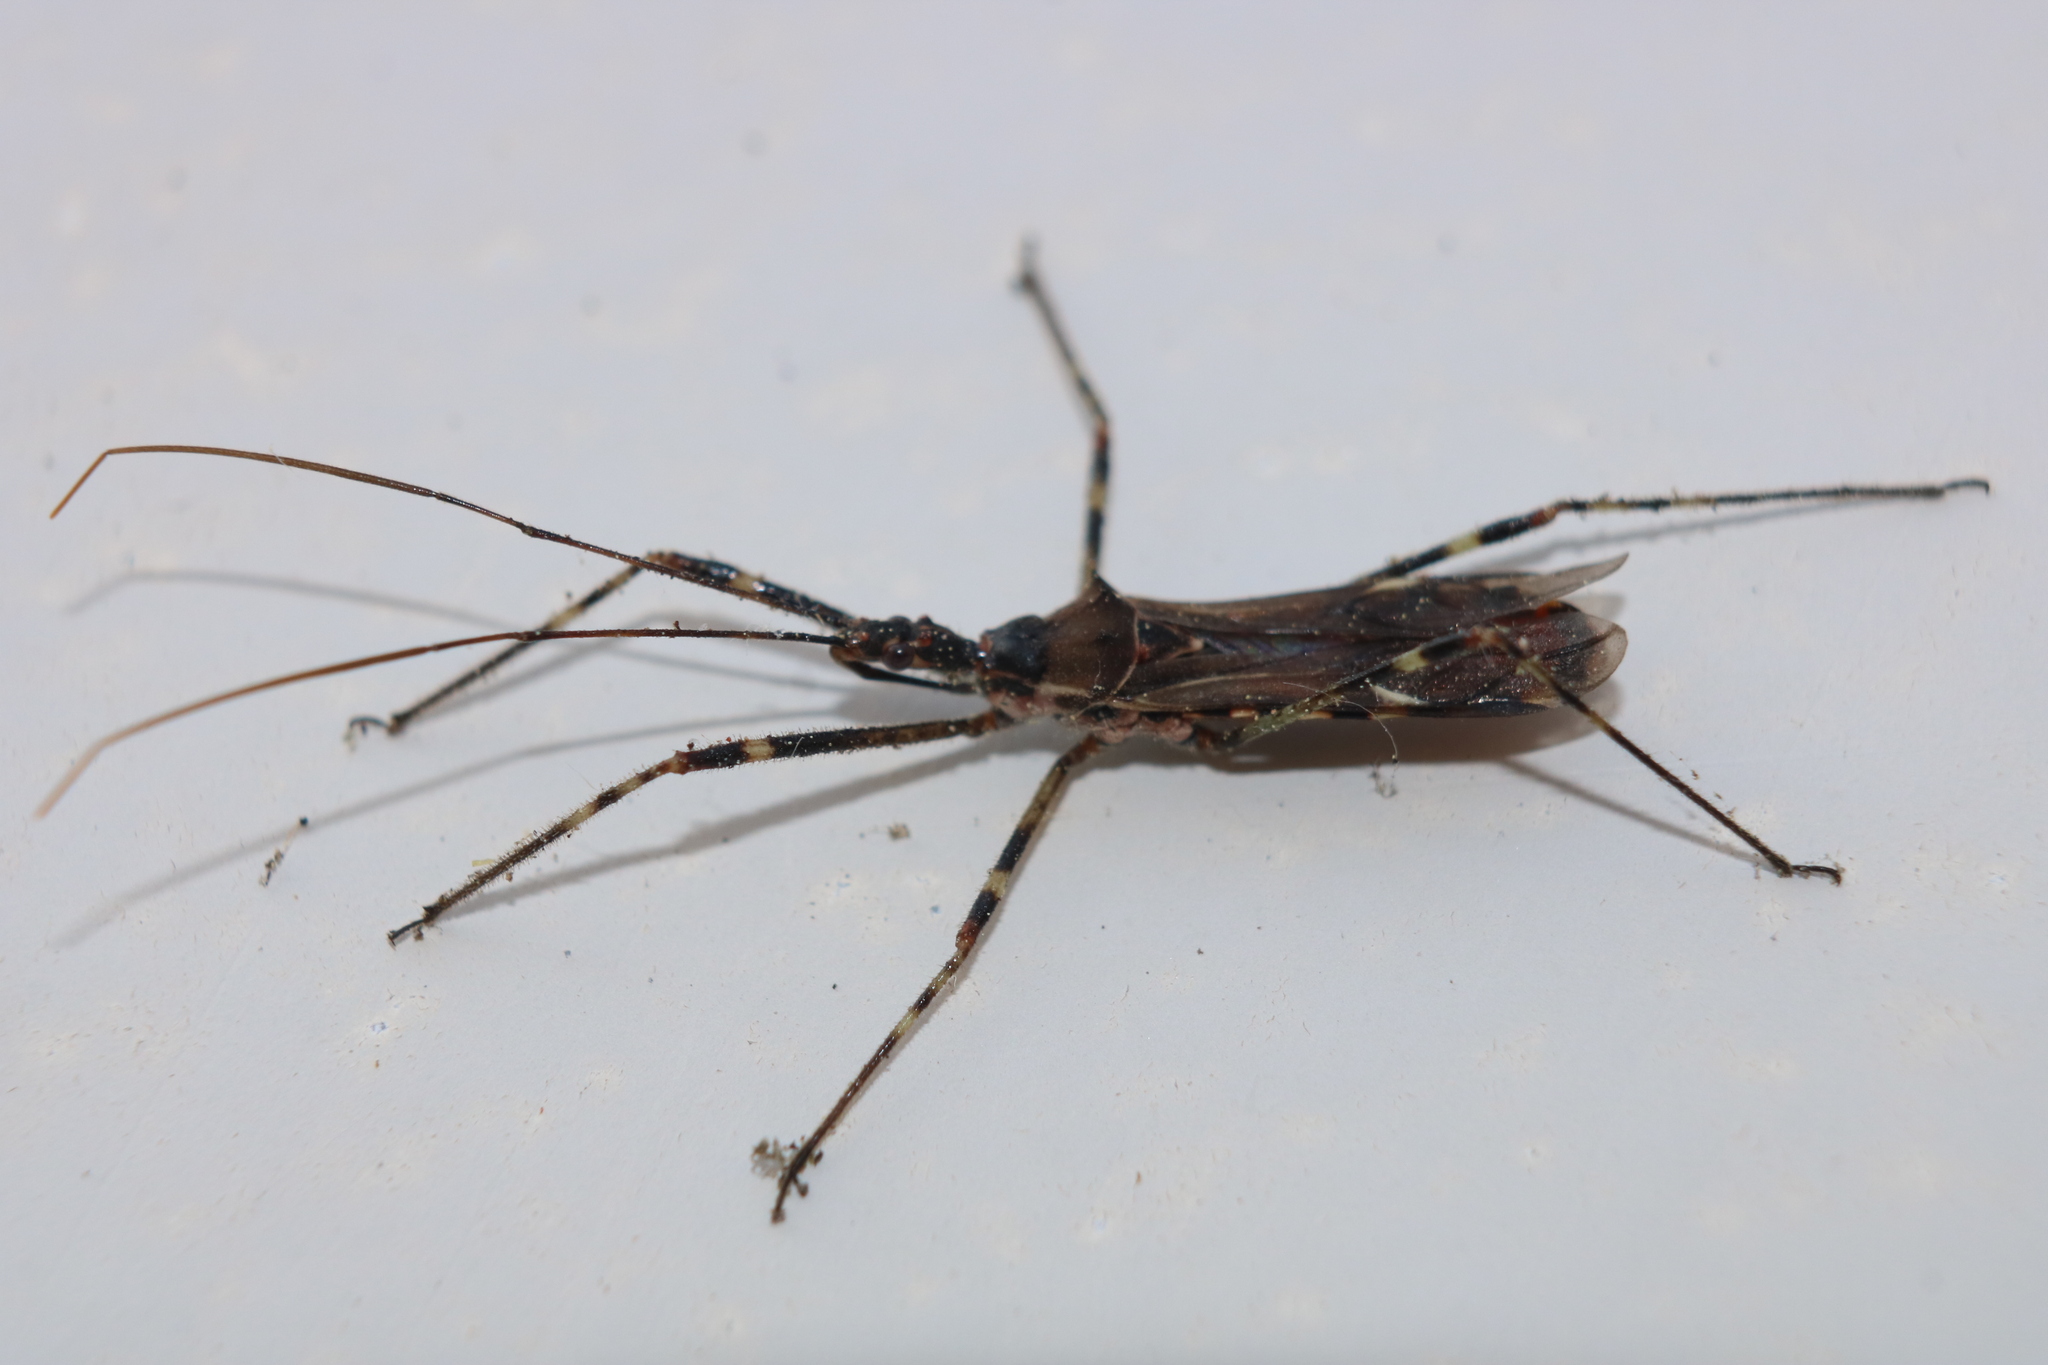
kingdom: Animalia
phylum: Arthropoda
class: Insecta
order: Hemiptera
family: Reduviidae
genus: Zelus
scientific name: Zelus tetracanthus
